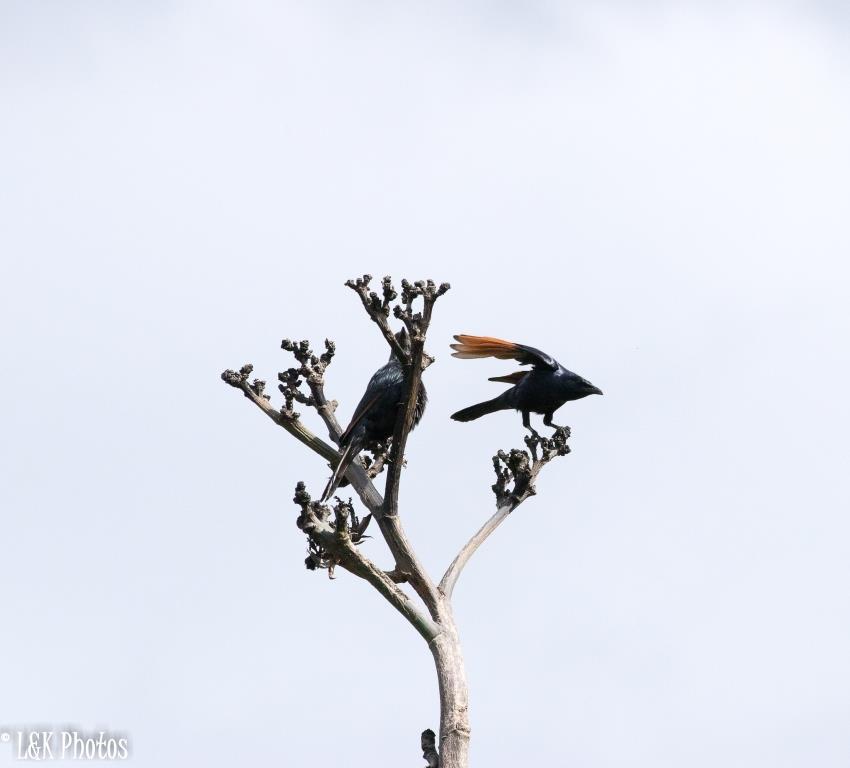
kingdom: Animalia
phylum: Chordata
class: Aves
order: Passeriformes
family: Sturnidae
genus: Onychognathus
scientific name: Onychognathus morio
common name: Red-winged starling
